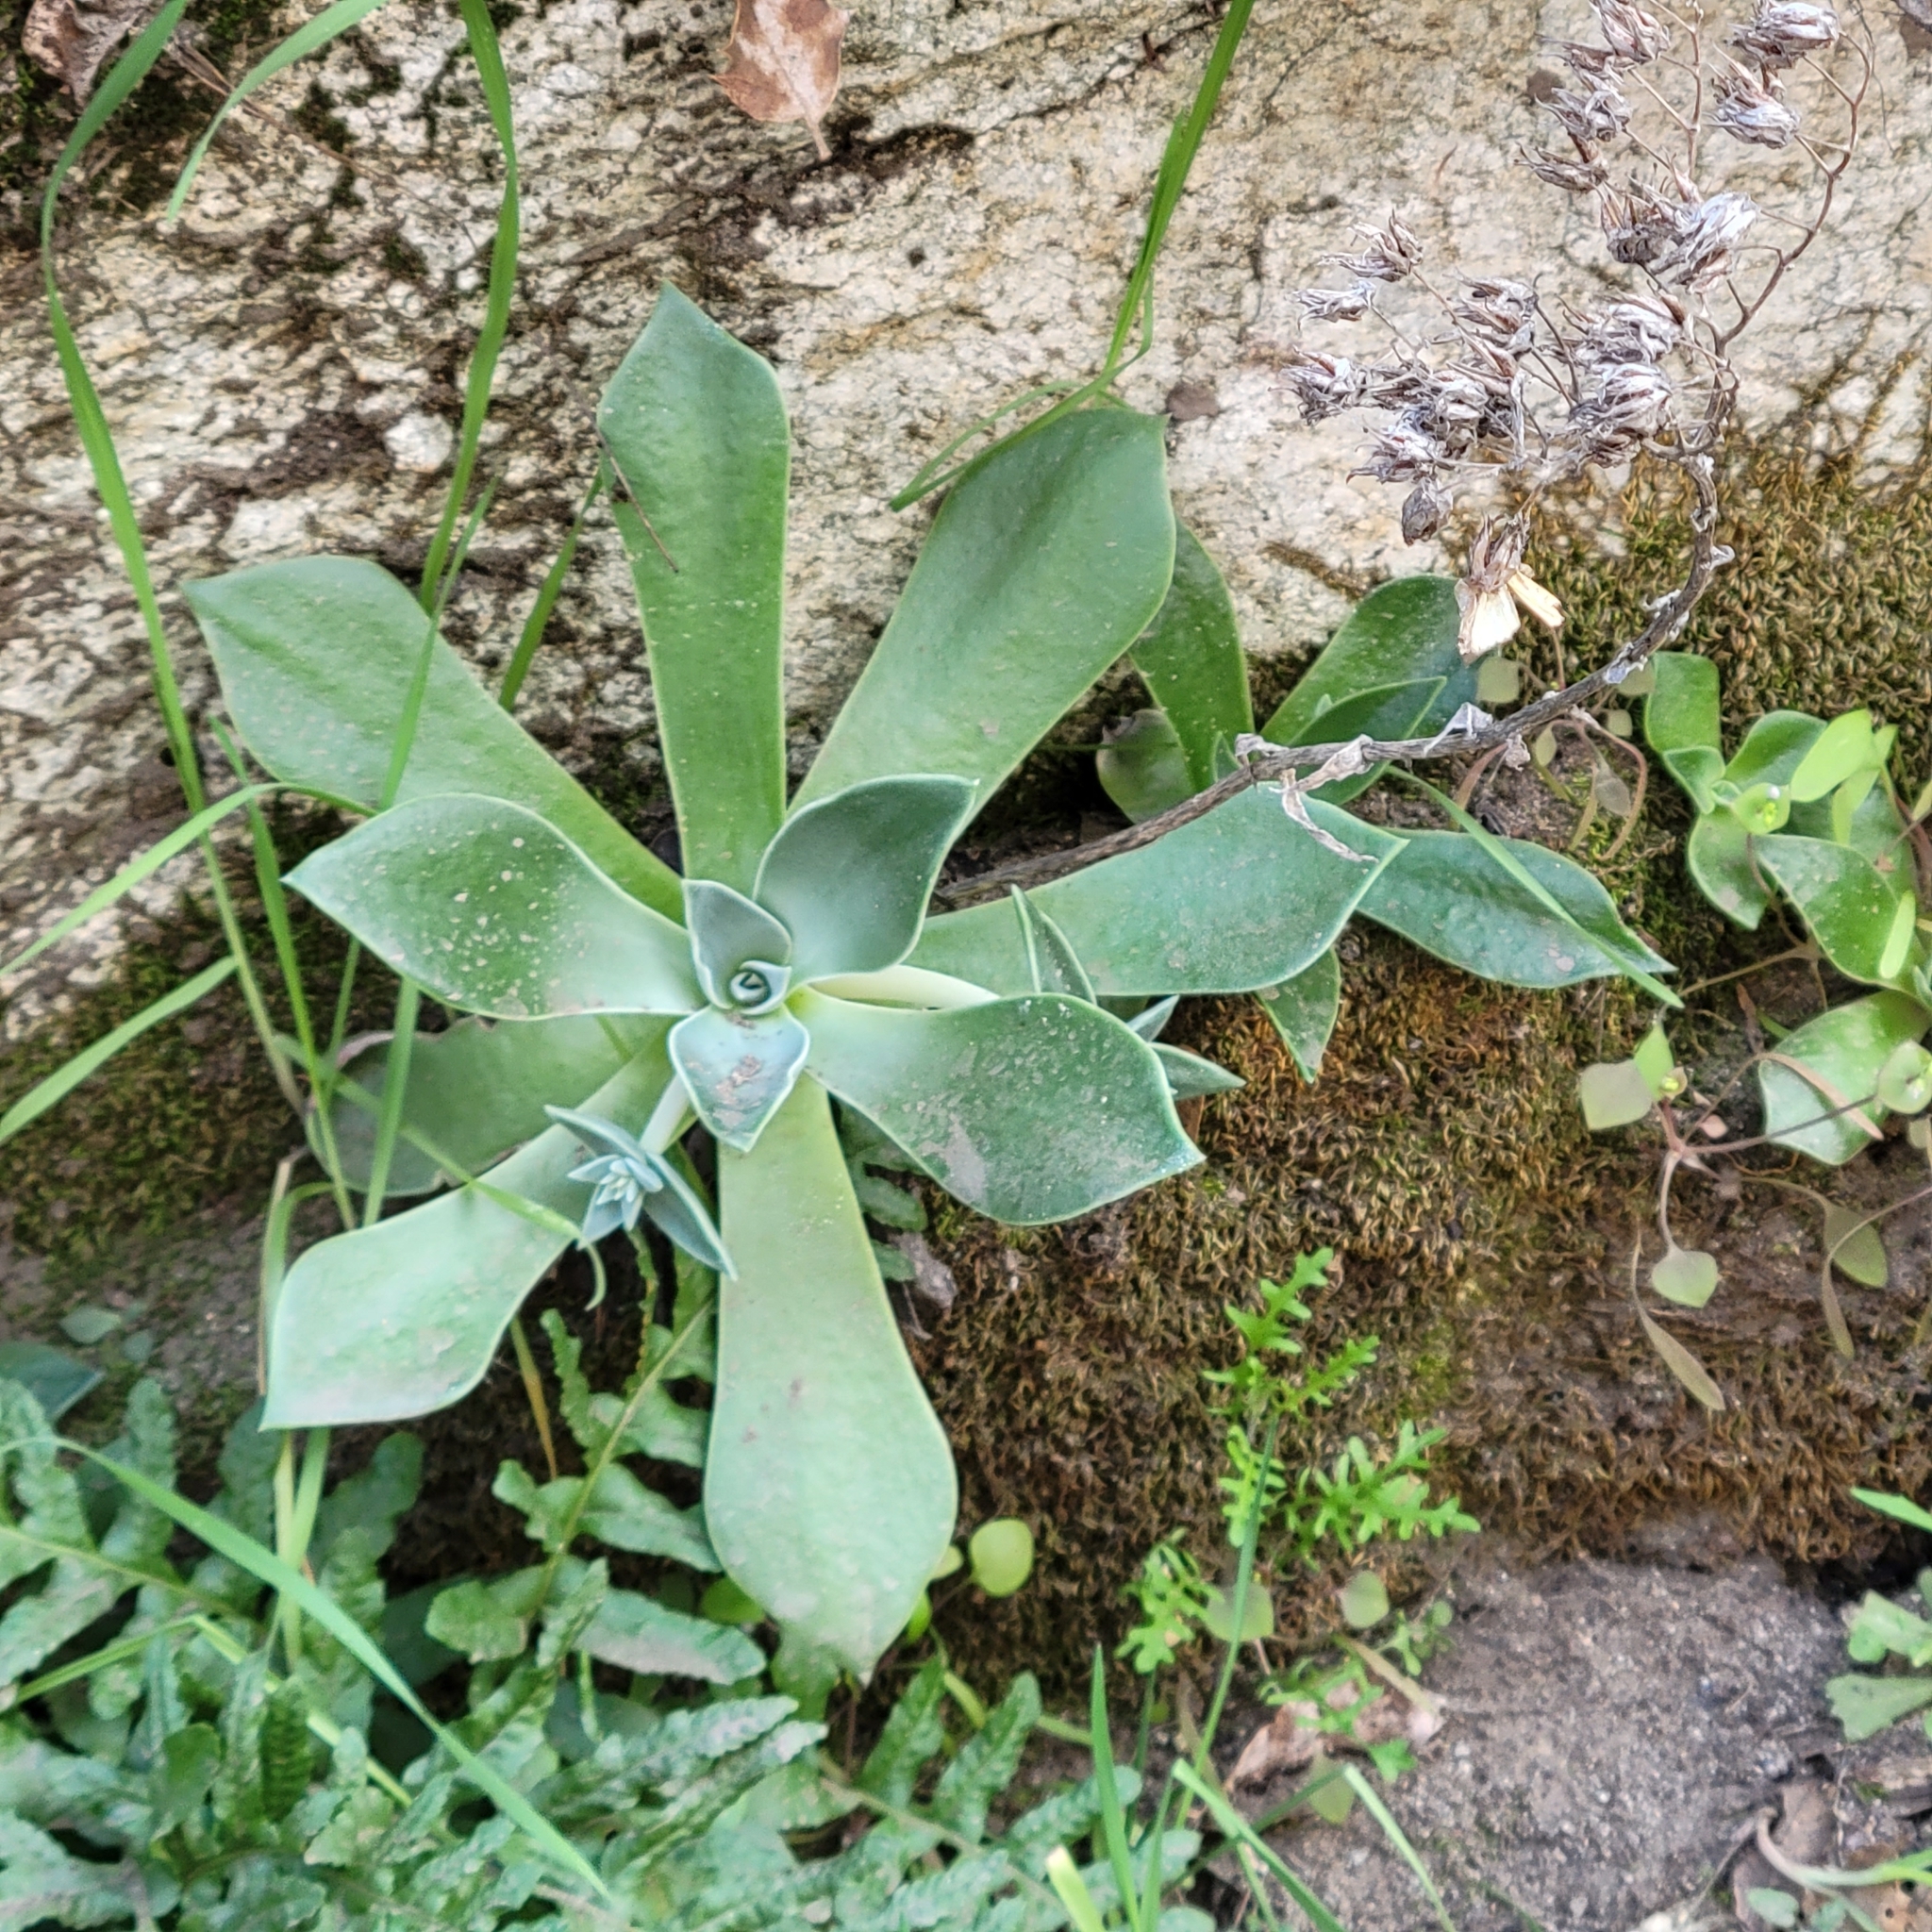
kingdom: Plantae
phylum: Tracheophyta
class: Magnoliopsida
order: Saxifragales
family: Crassulaceae
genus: Dudleya
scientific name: Dudleya cymosa
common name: Canyon dudleya
